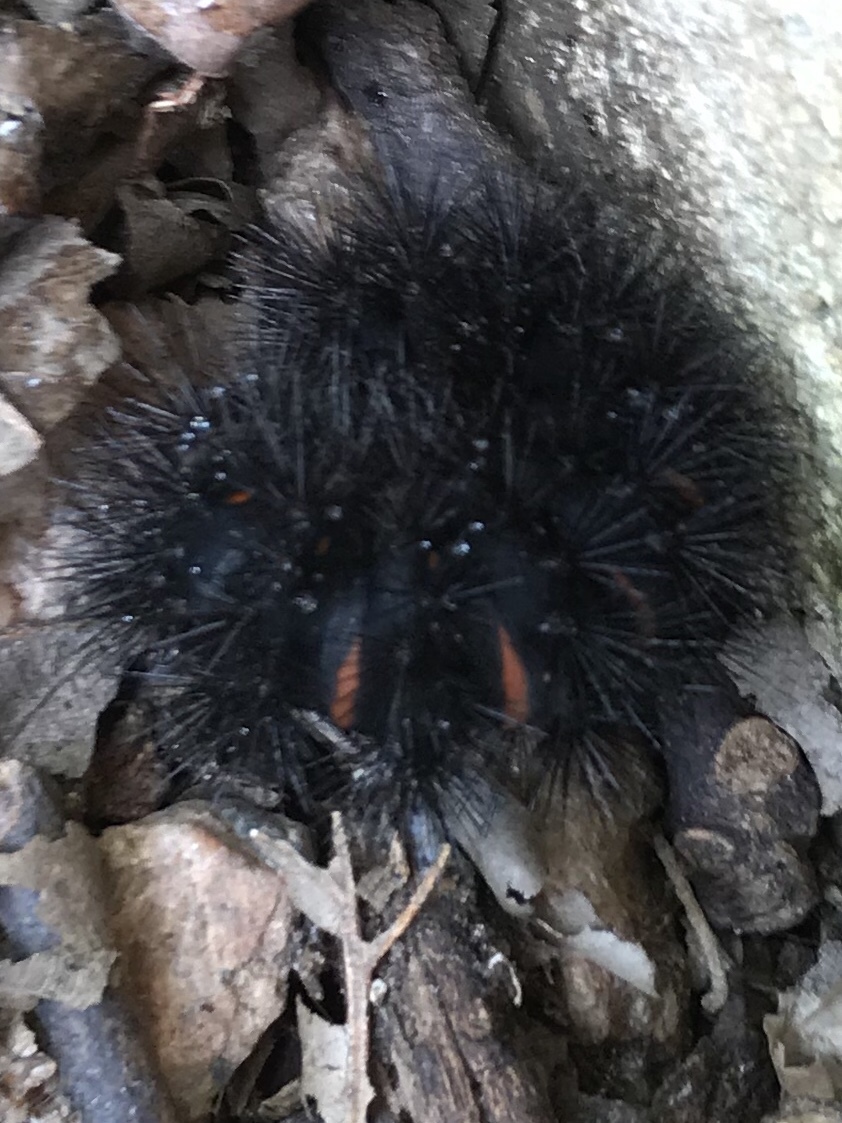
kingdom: Animalia
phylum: Arthropoda
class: Insecta
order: Lepidoptera
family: Erebidae
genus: Hypercompe
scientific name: Hypercompe scribonia
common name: Giant leopard moth
